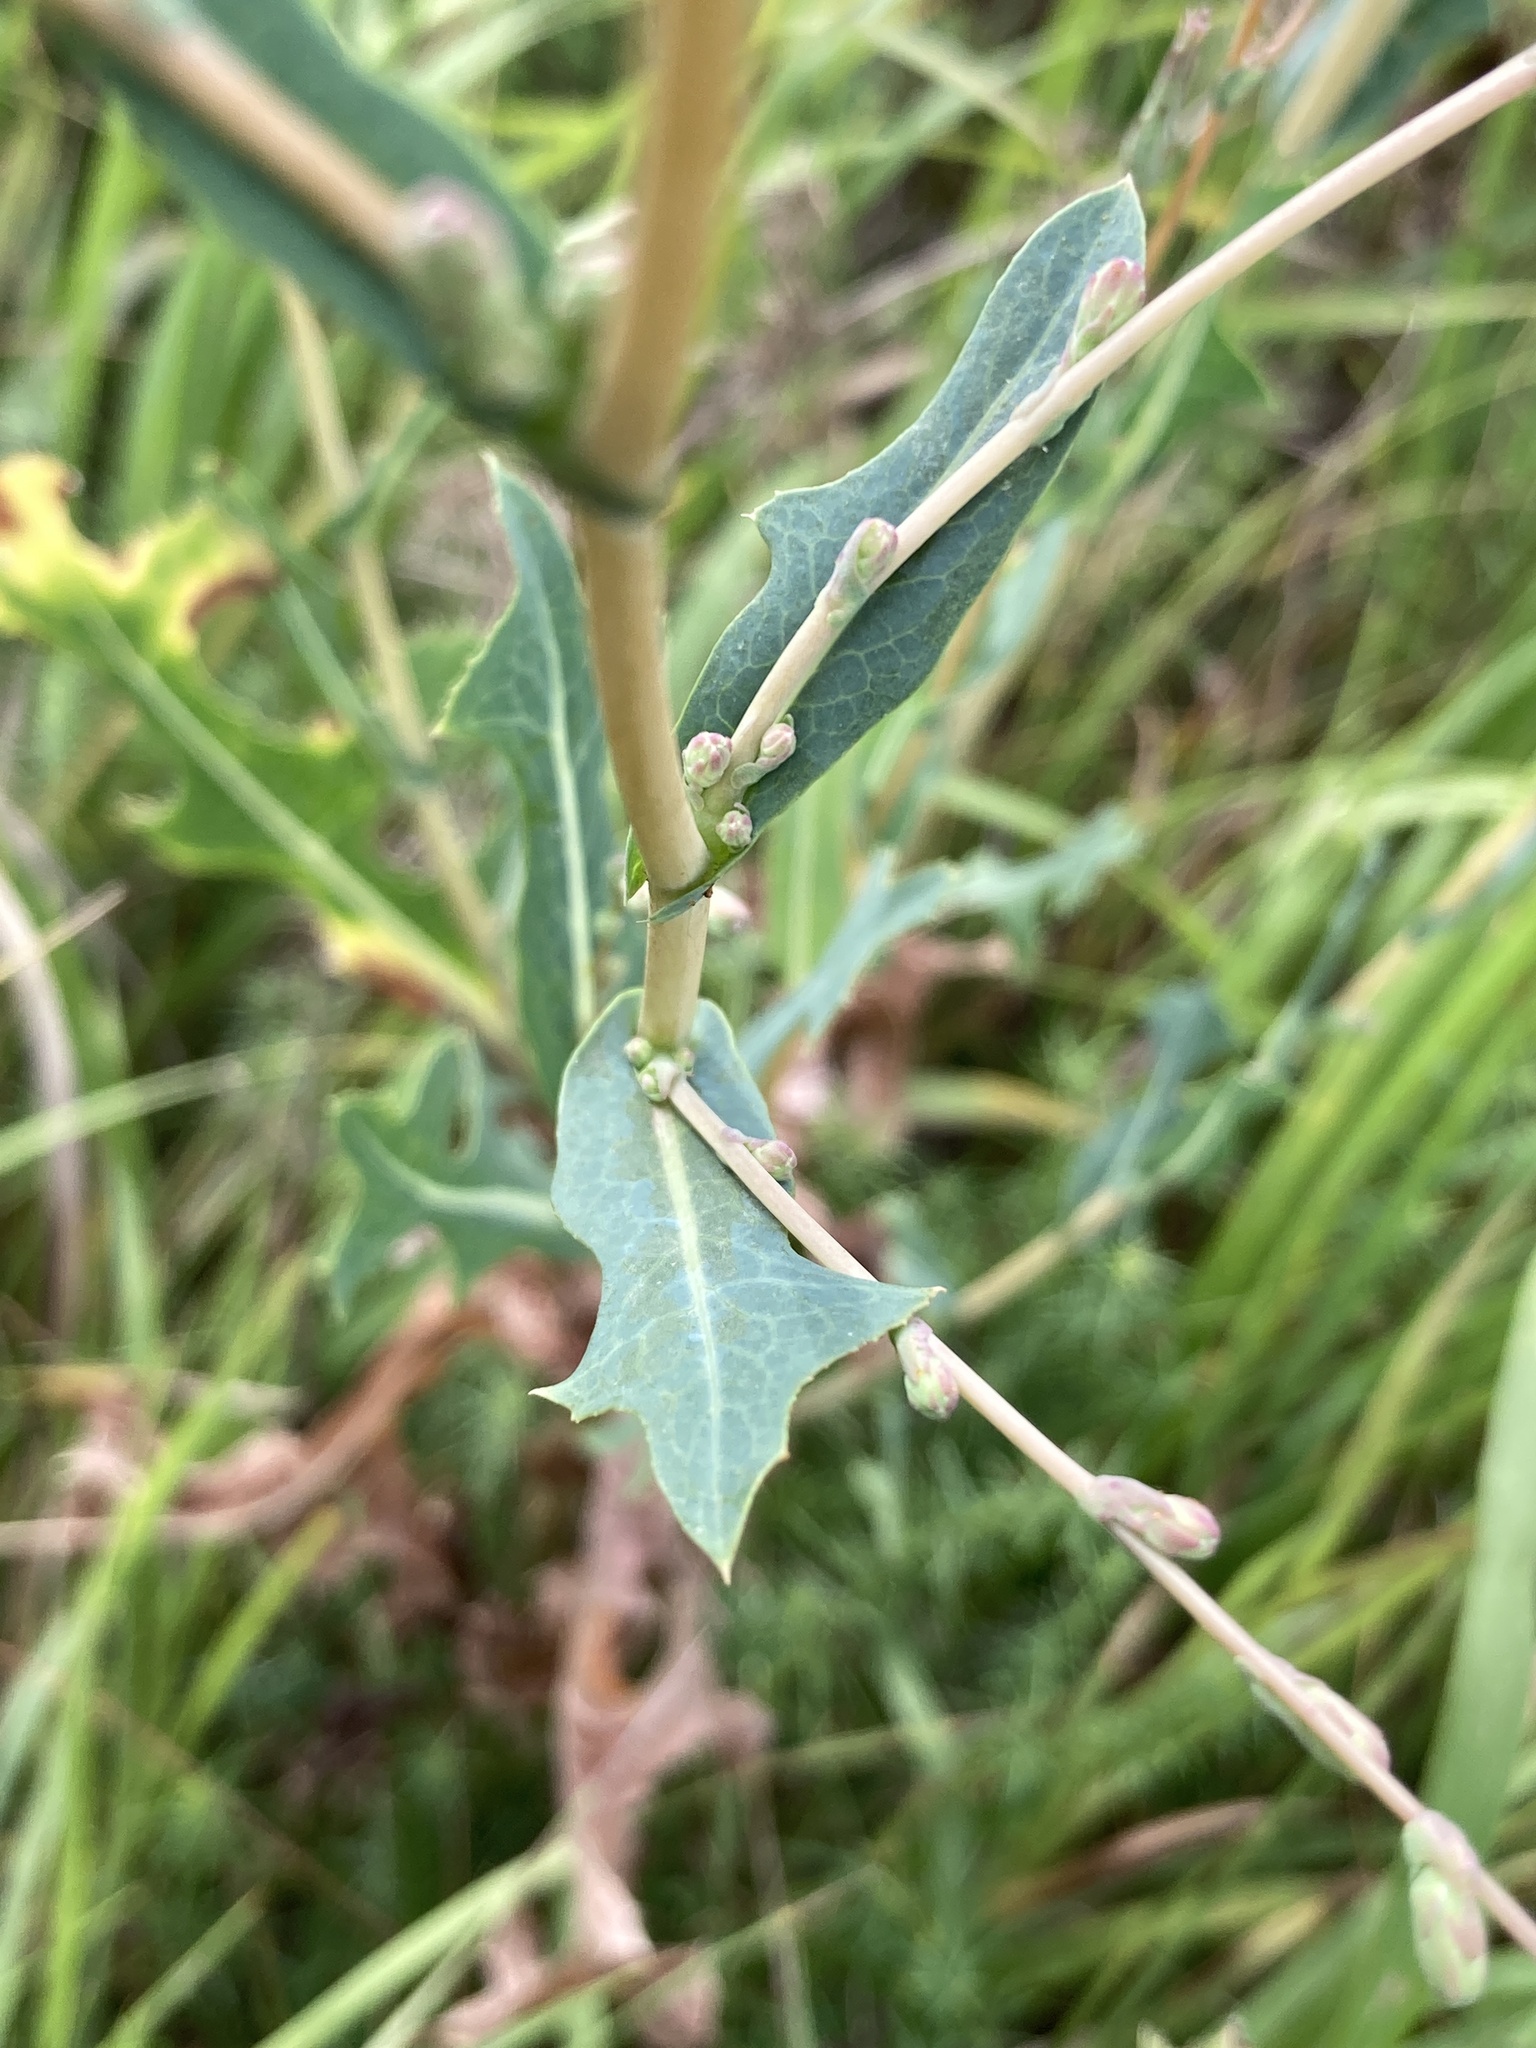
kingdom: Plantae
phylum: Tracheophyta
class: Magnoliopsida
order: Asterales
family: Asteraceae
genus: Lactuca
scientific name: Lactuca serriola
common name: Prickly lettuce
